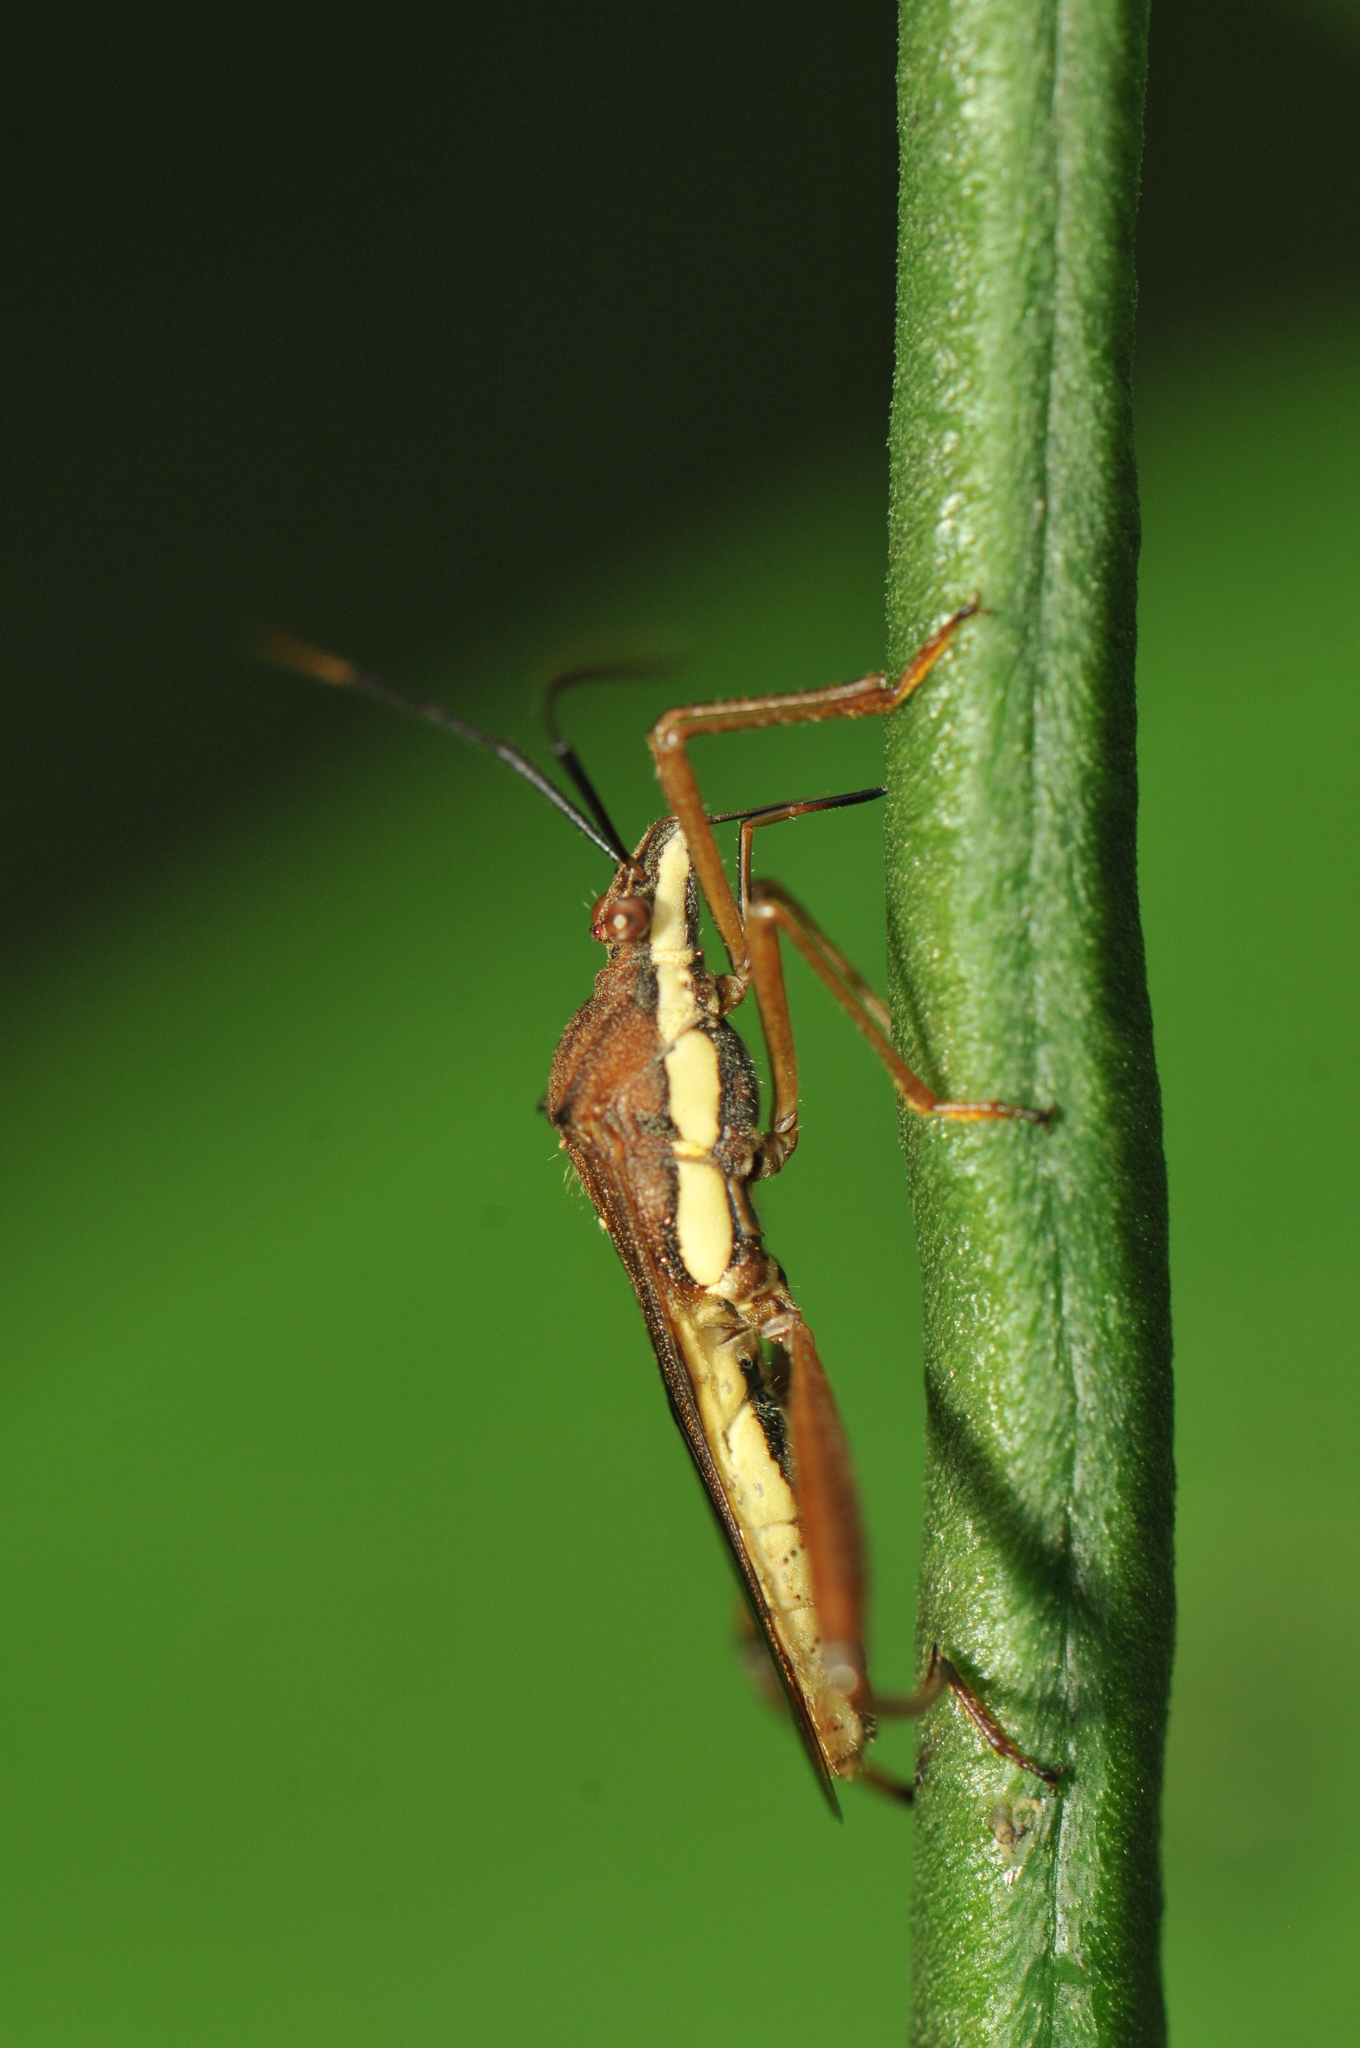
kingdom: Animalia
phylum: Arthropoda
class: Insecta
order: Hemiptera
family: Alydidae
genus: Riptortus
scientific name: Riptortus linearis
